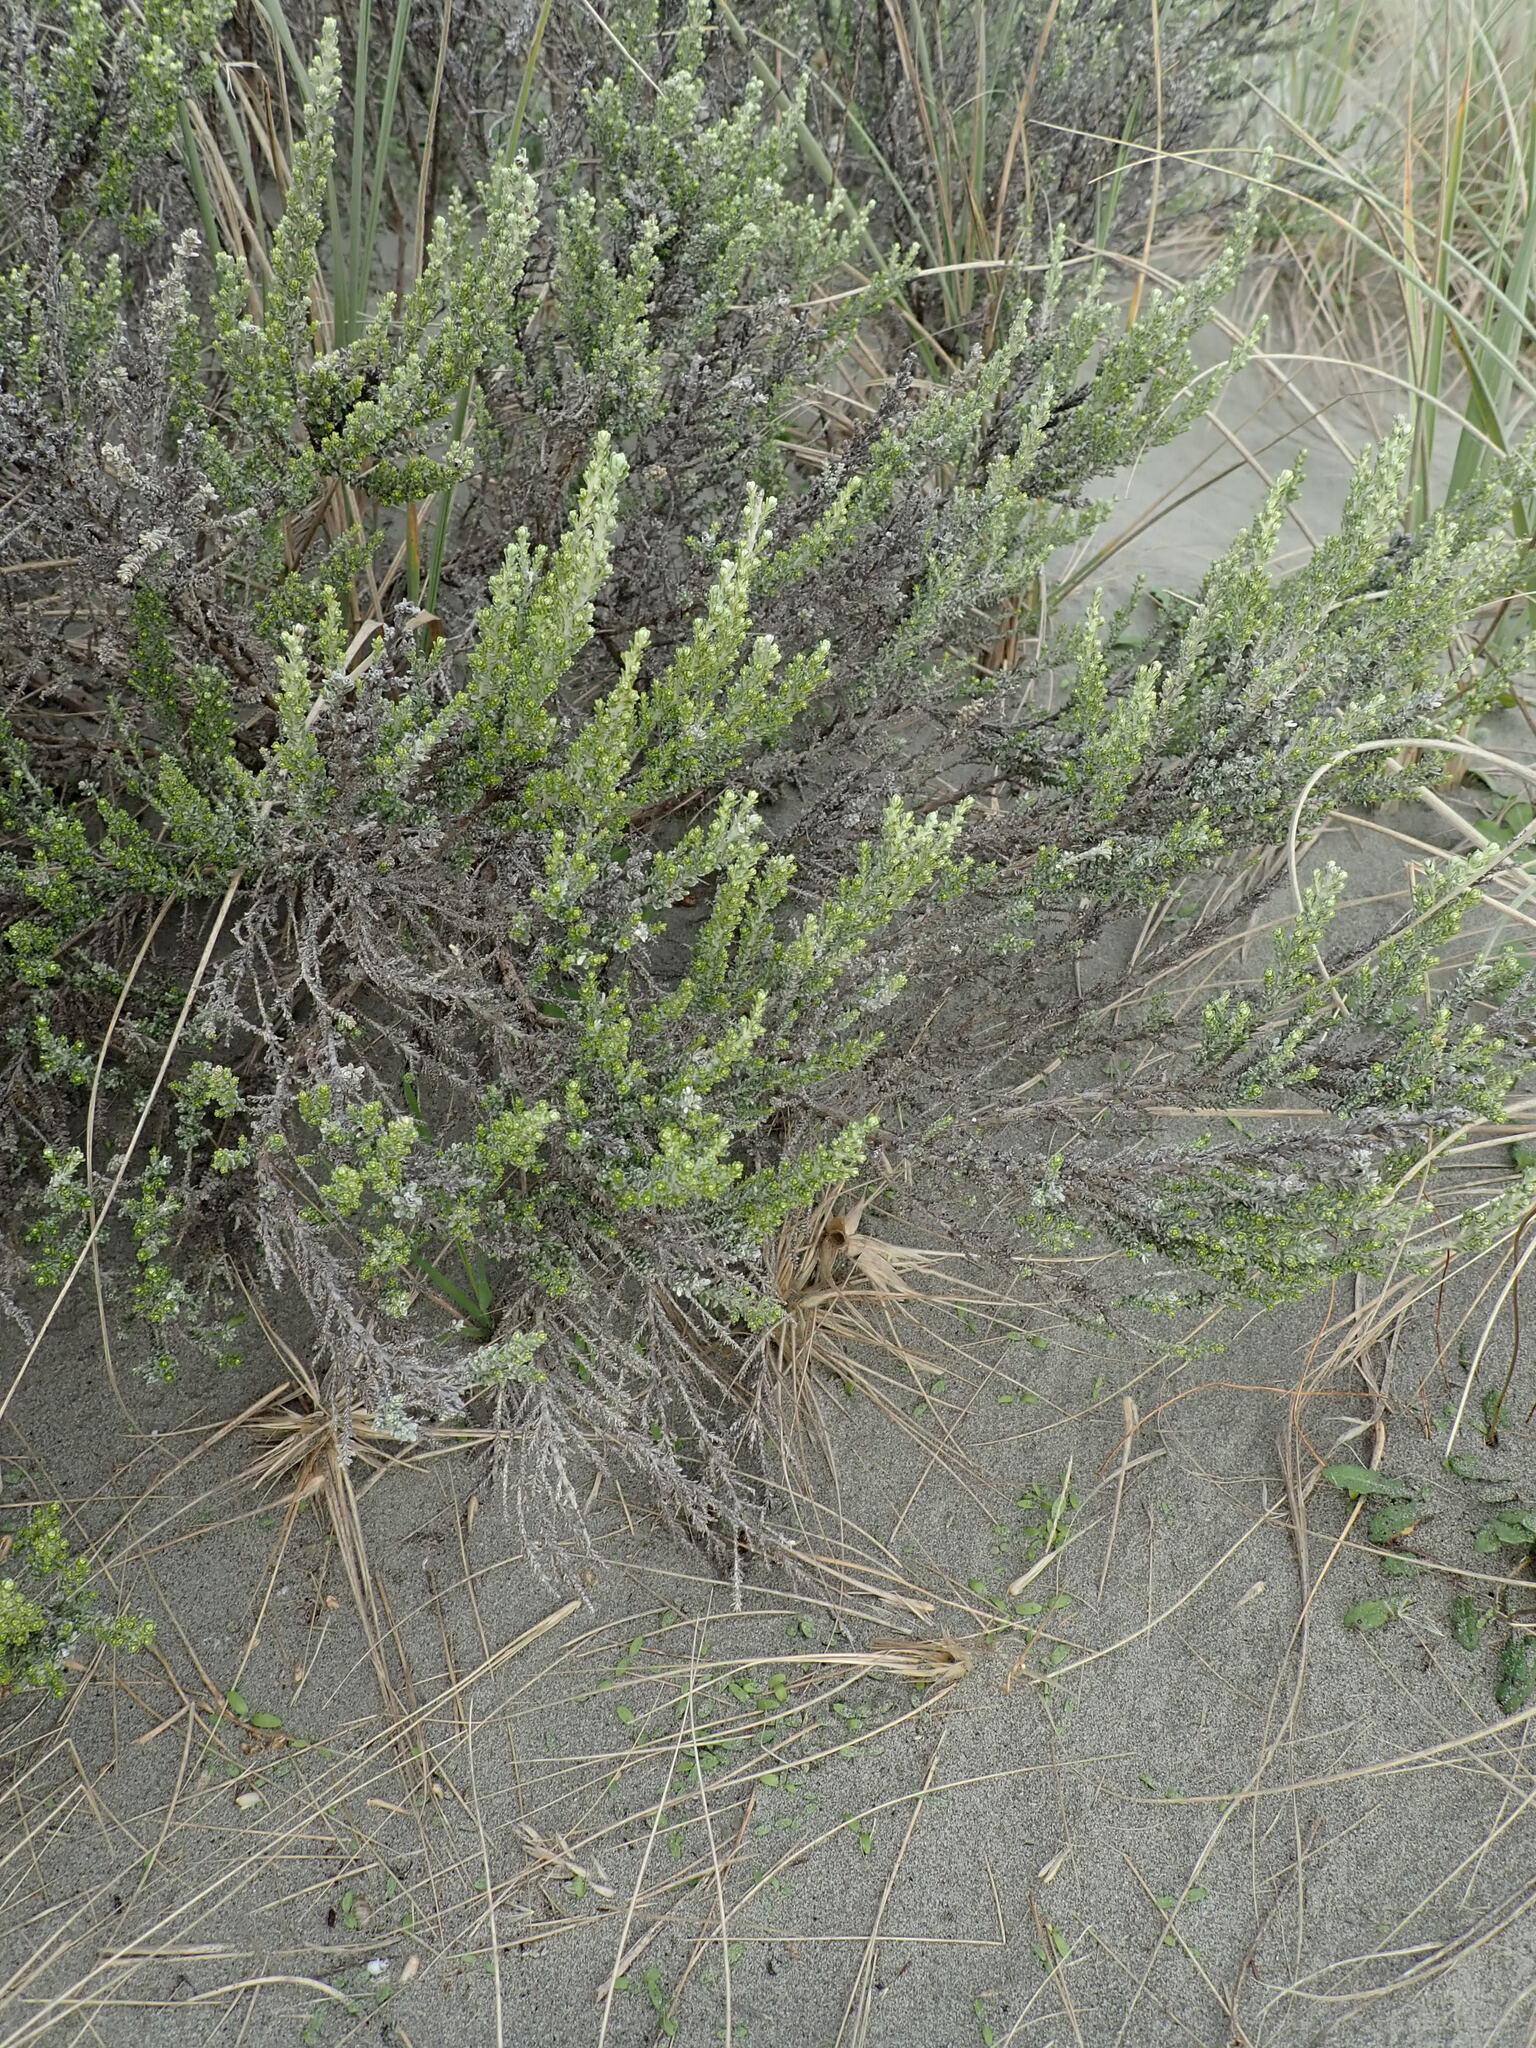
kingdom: Plantae
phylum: Tracheophyta
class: Magnoliopsida
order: Asterales
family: Asteraceae
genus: Ozothamnus
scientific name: Ozothamnus leptophyllus
